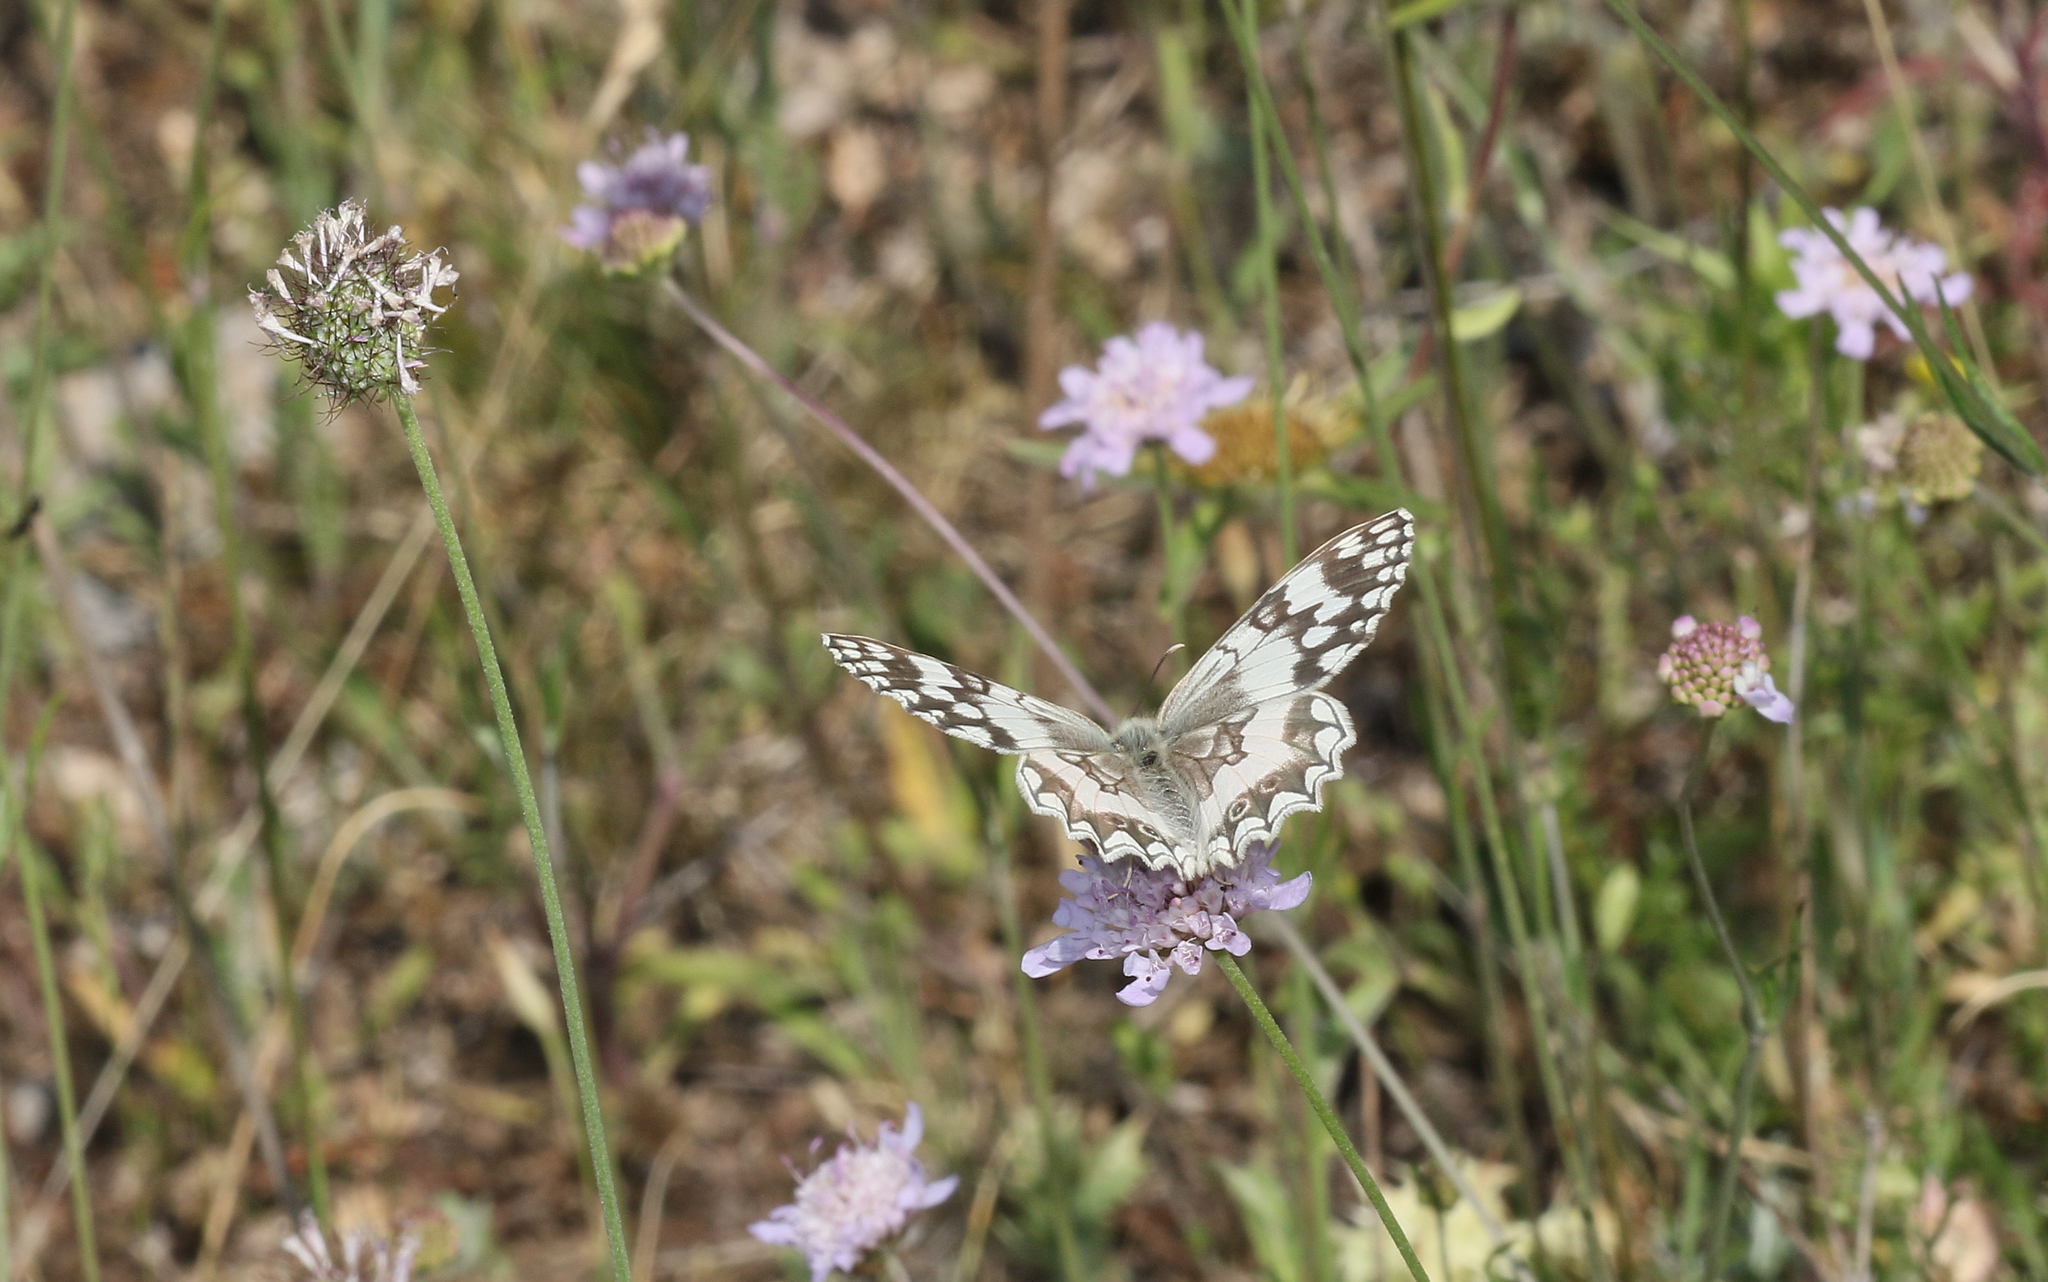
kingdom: Animalia
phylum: Arthropoda
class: Insecta
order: Lepidoptera
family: Nymphalidae
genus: Melanargia
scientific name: Melanargia larissa
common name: Balkan marbled white
